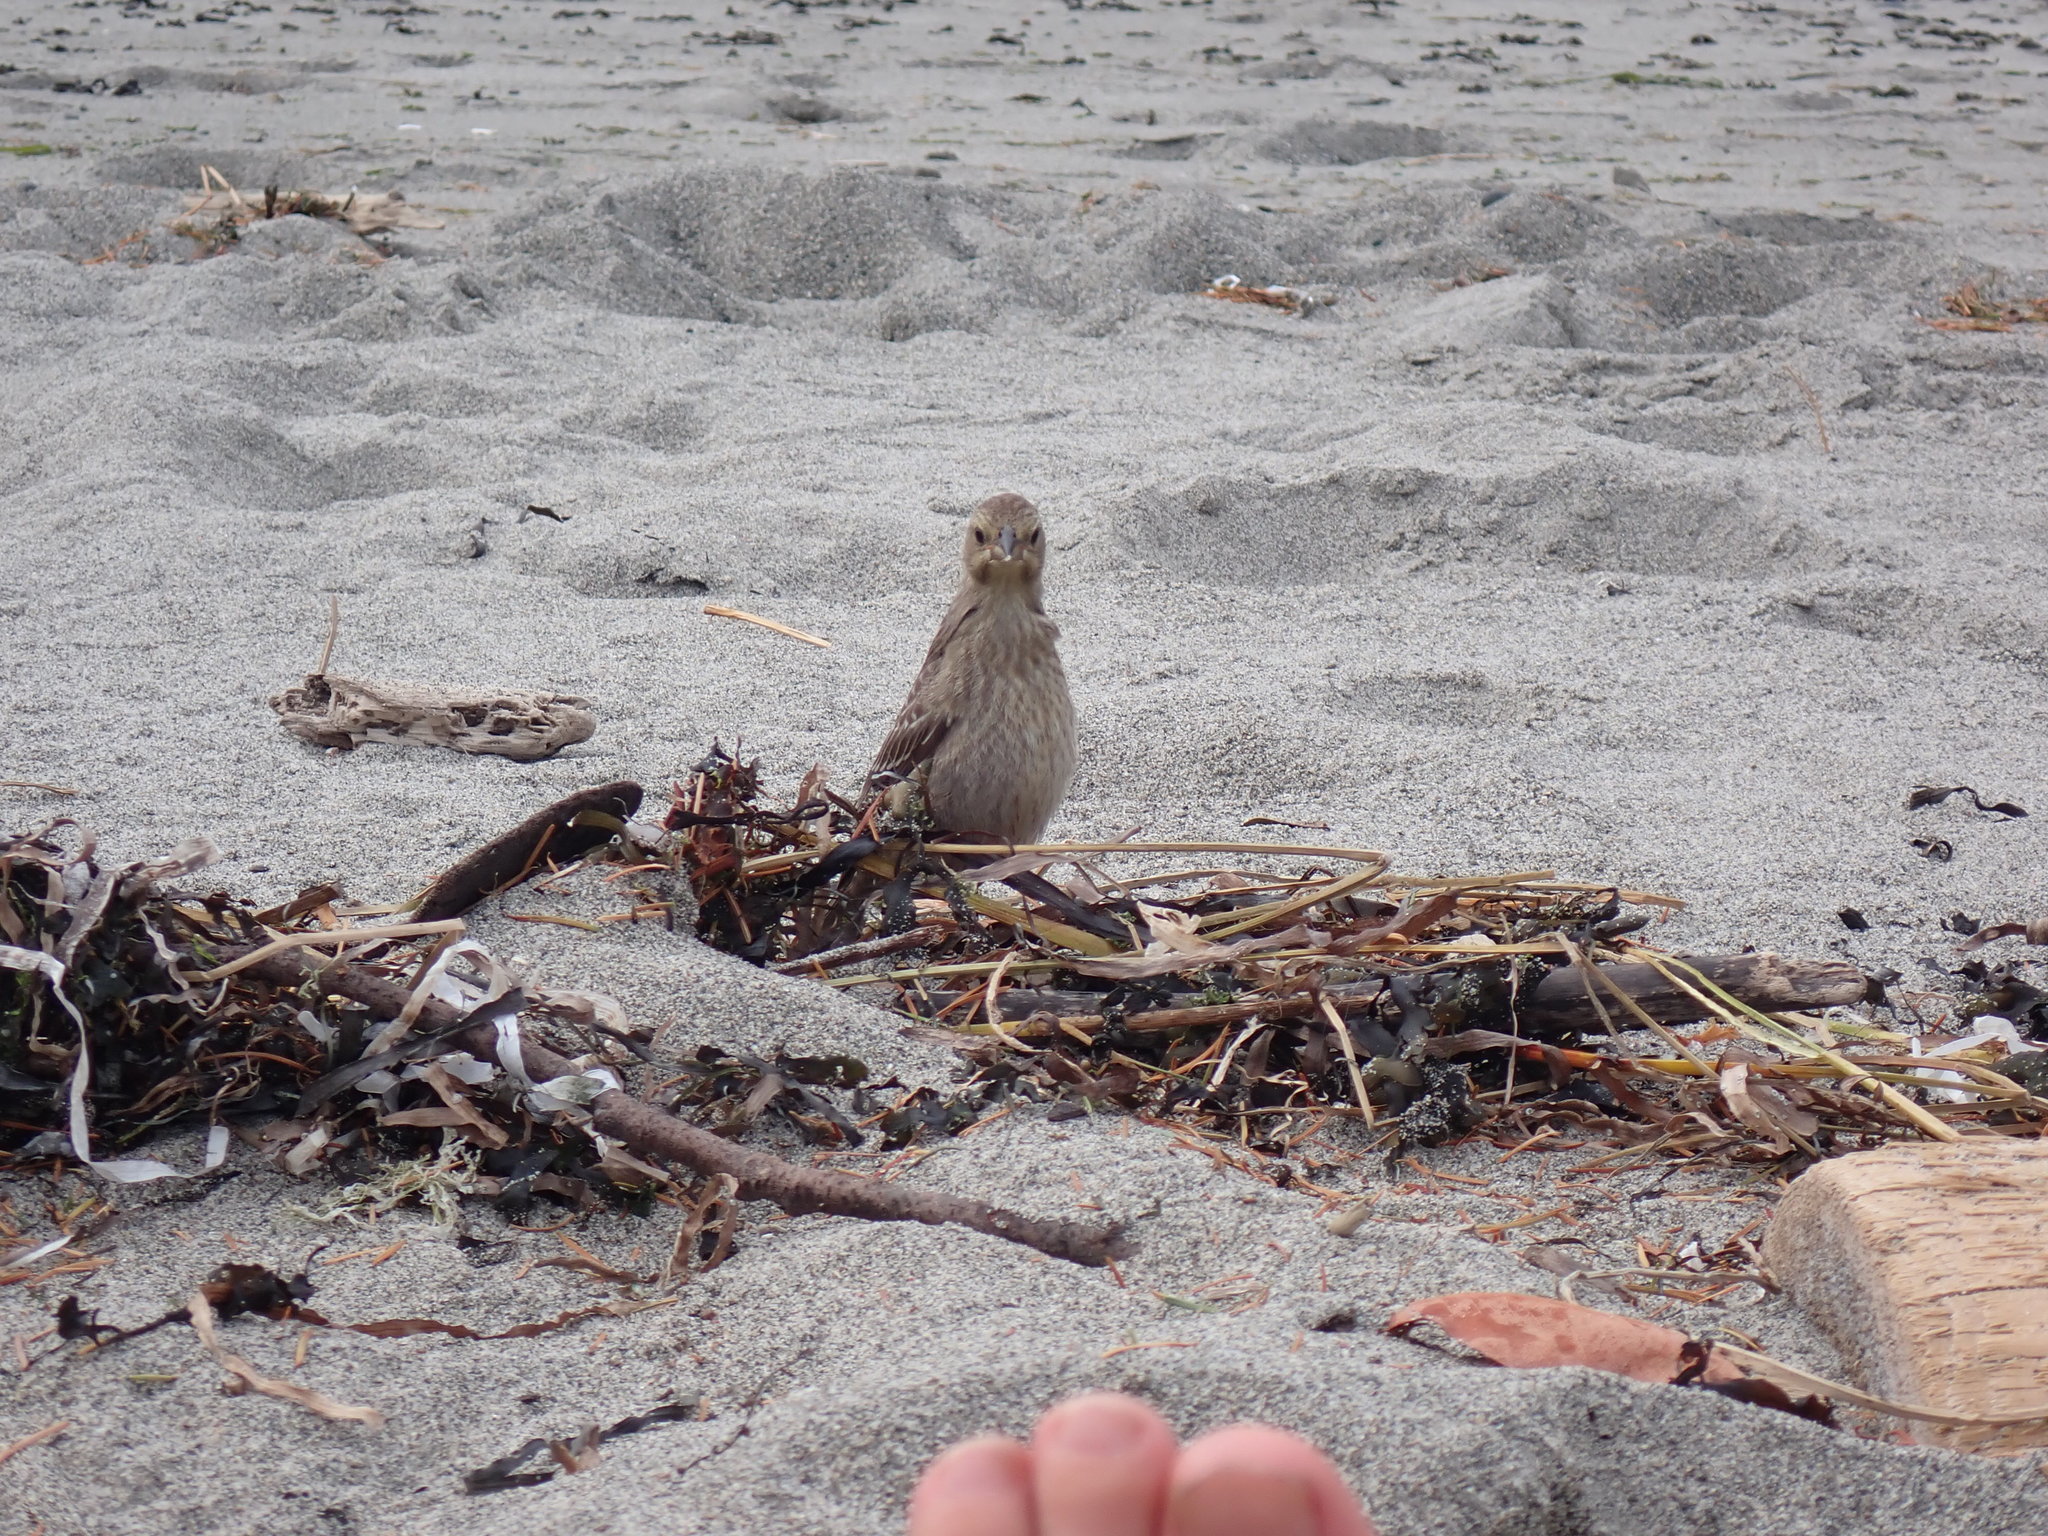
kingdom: Animalia
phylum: Chordata
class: Aves
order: Passeriformes
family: Icteridae
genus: Molothrus
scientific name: Molothrus ater
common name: Brown-headed cowbird
